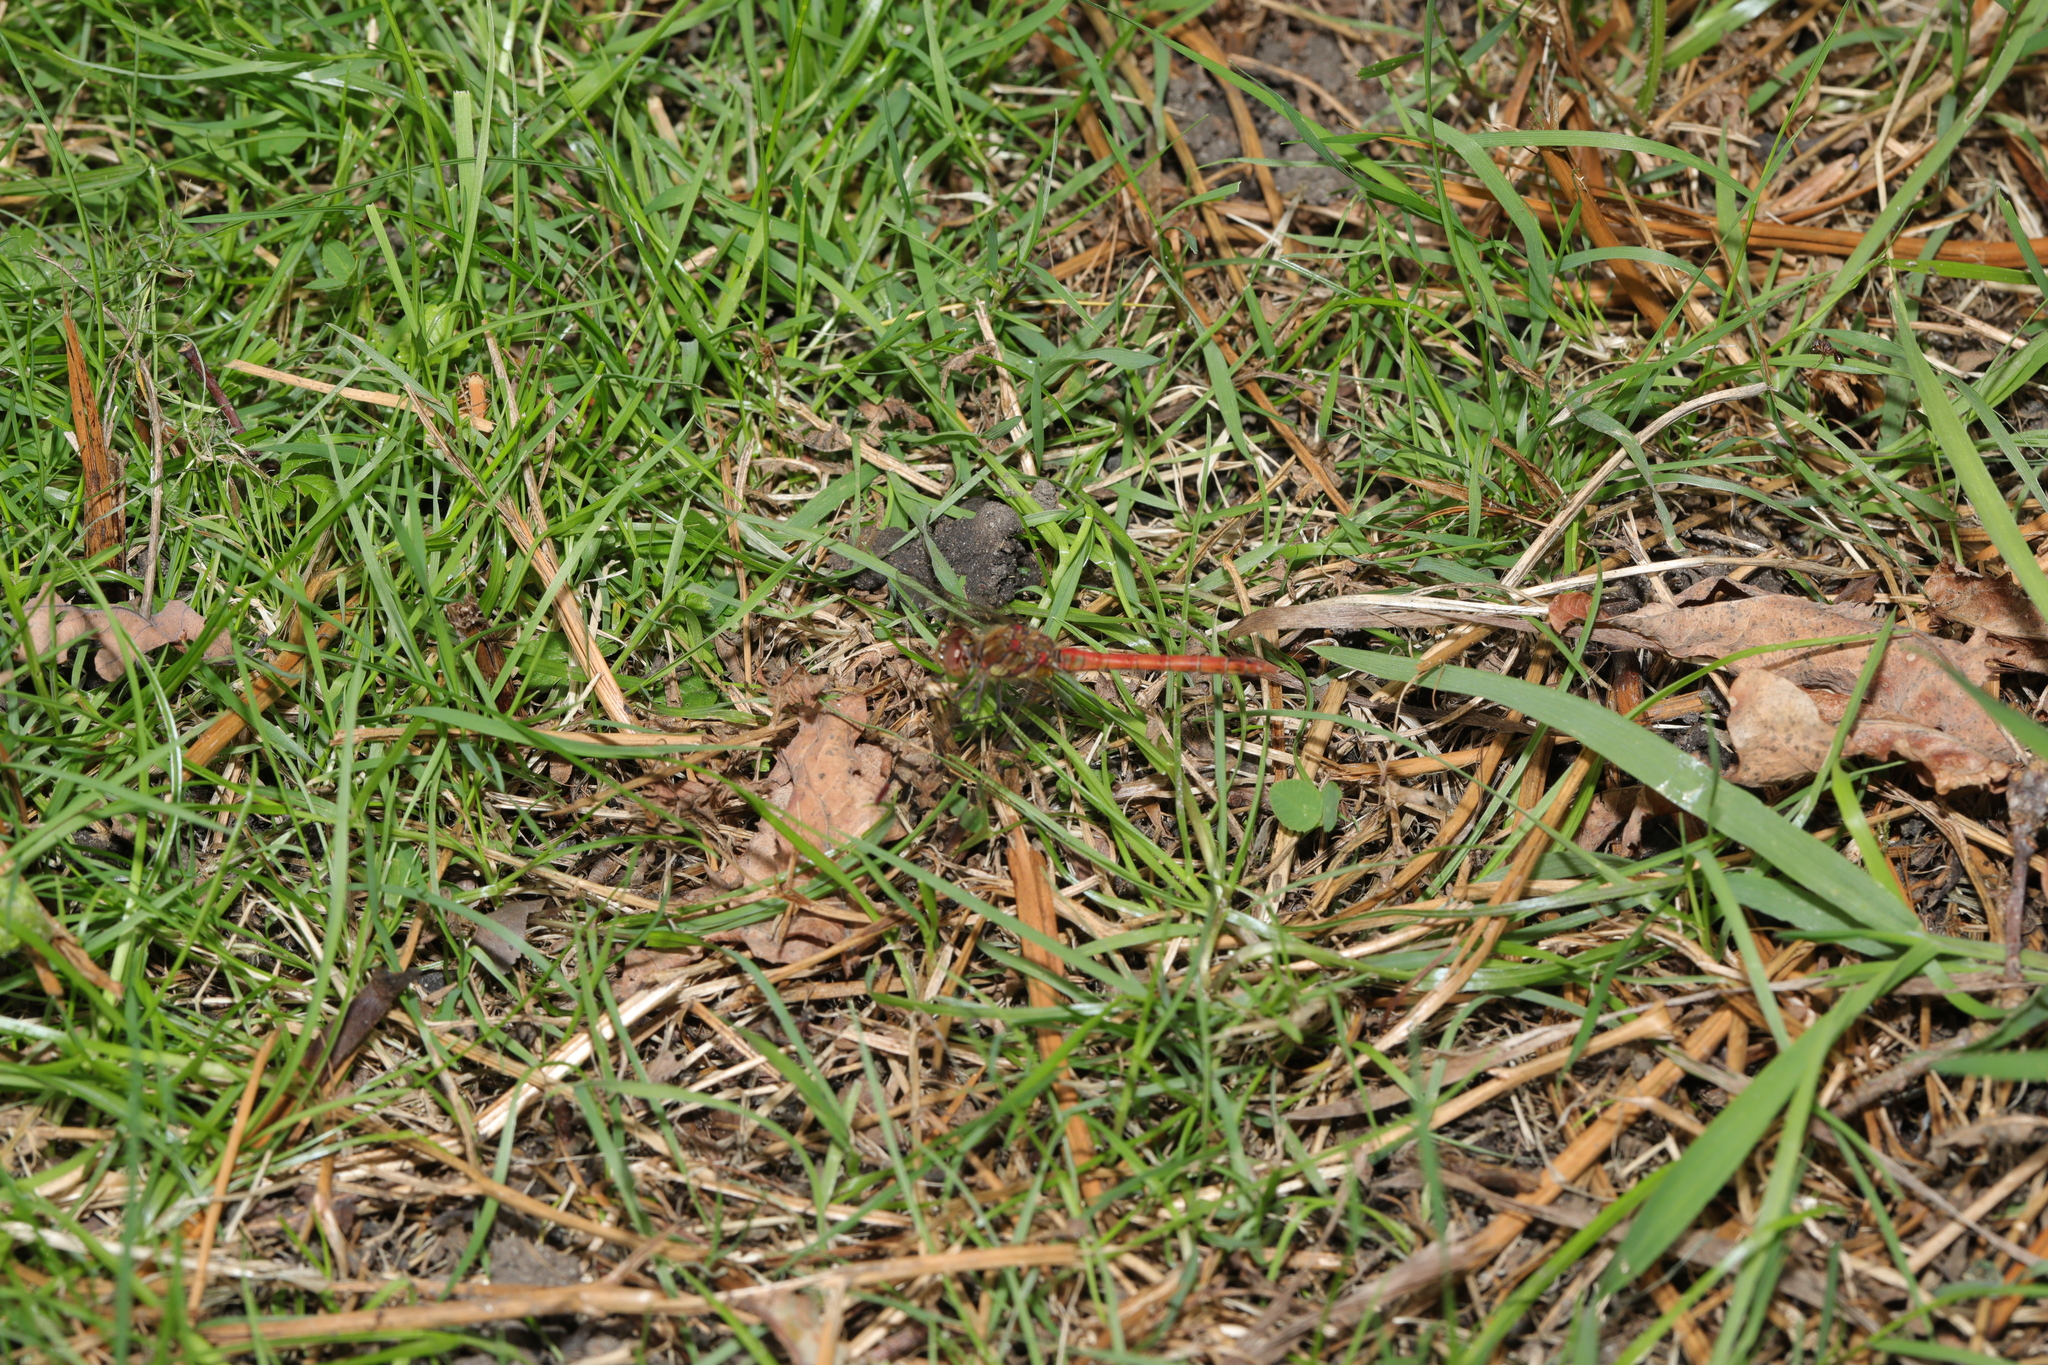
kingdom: Animalia
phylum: Arthropoda
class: Insecta
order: Odonata
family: Libellulidae
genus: Sympetrum
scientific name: Sympetrum striolatum
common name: Common darter
